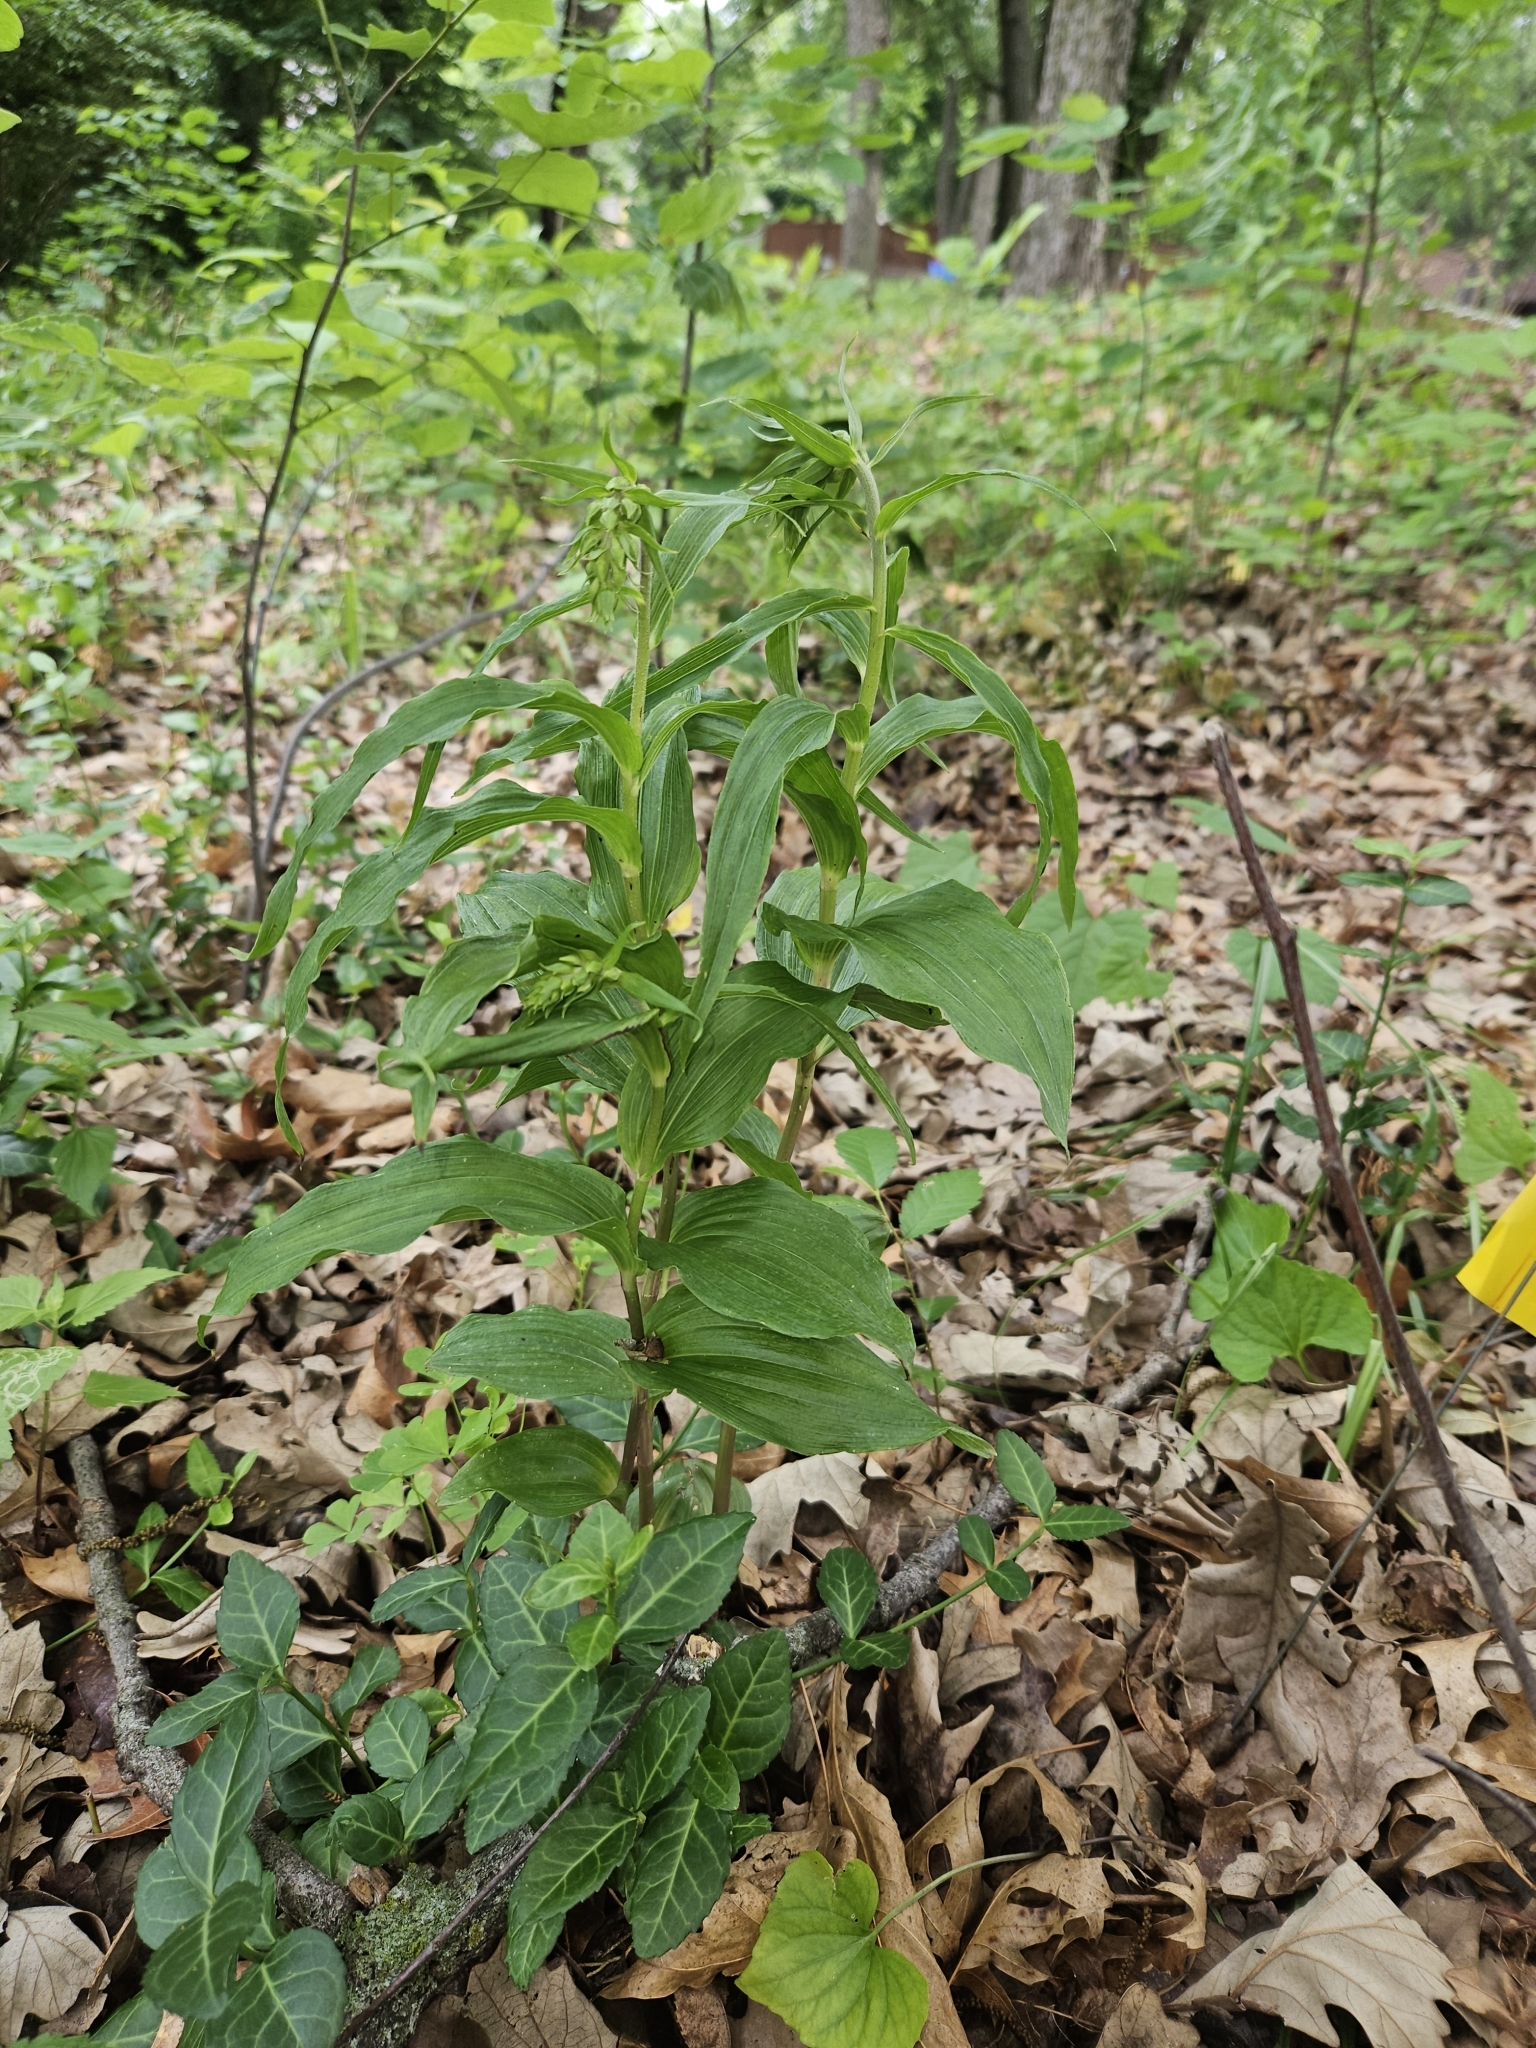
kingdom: Plantae
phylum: Tracheophyta
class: Liliopsida
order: Asparagales
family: Orchidaceae
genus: Epipactis
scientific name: Epipactis helleborine
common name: Broad-leaved helleborine
